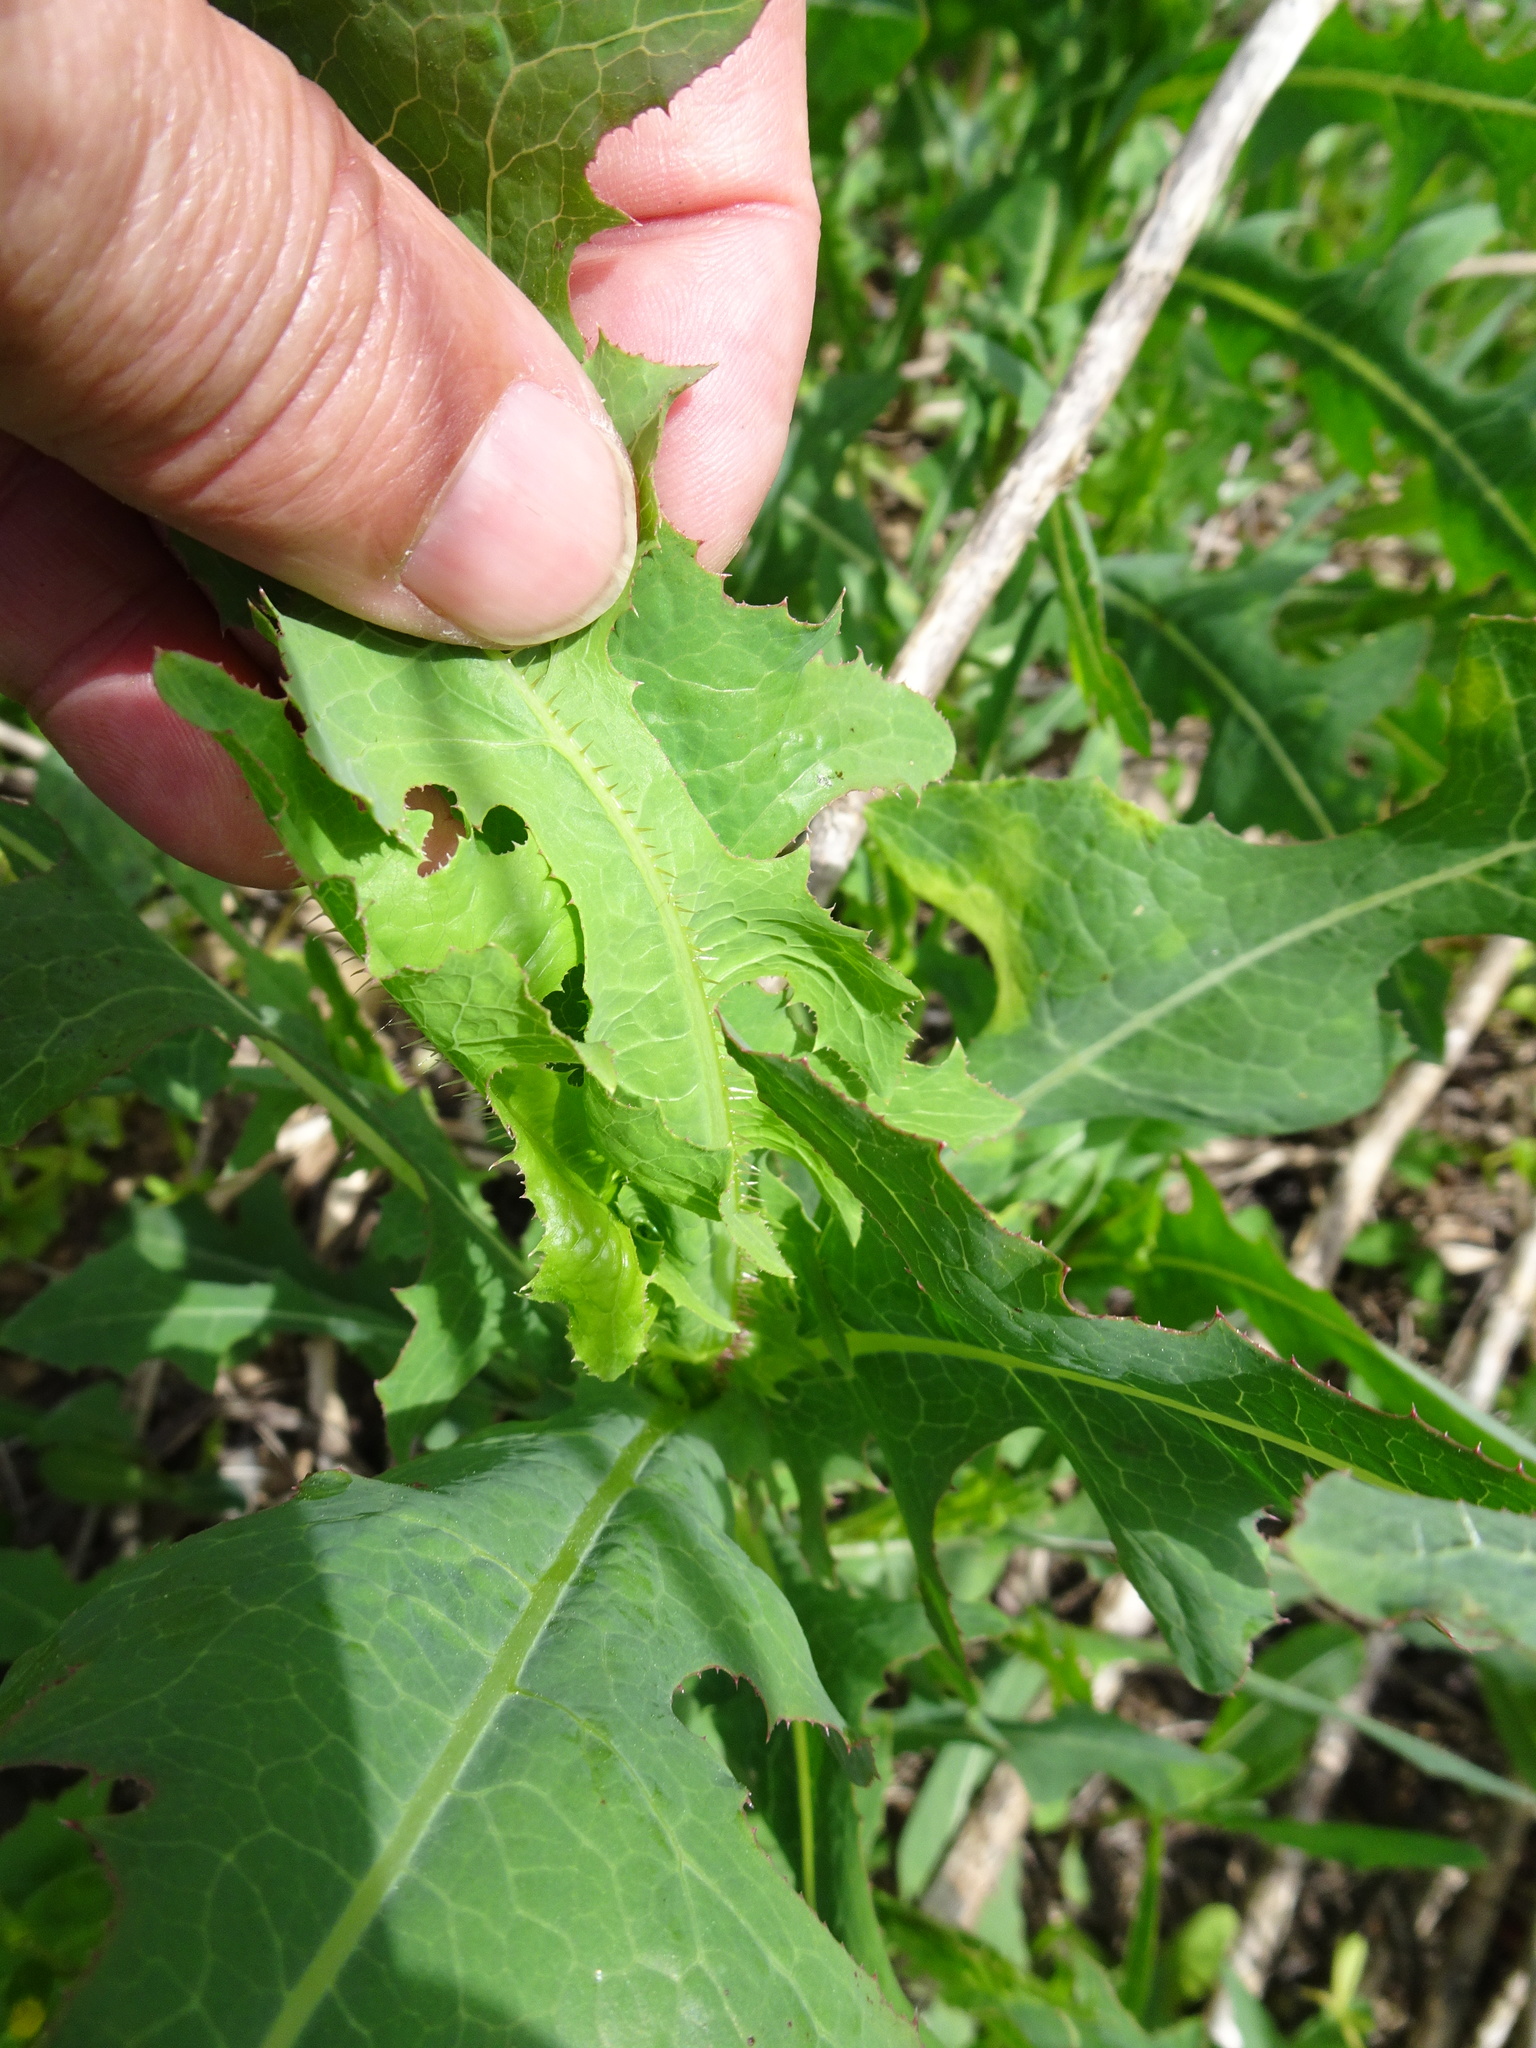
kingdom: Plantae
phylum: Tracheophyta
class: Magnoliopsida
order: Asterales
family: Asteraceae
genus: Lactuca
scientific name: Lactuca serriola
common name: Prickly lettuce
